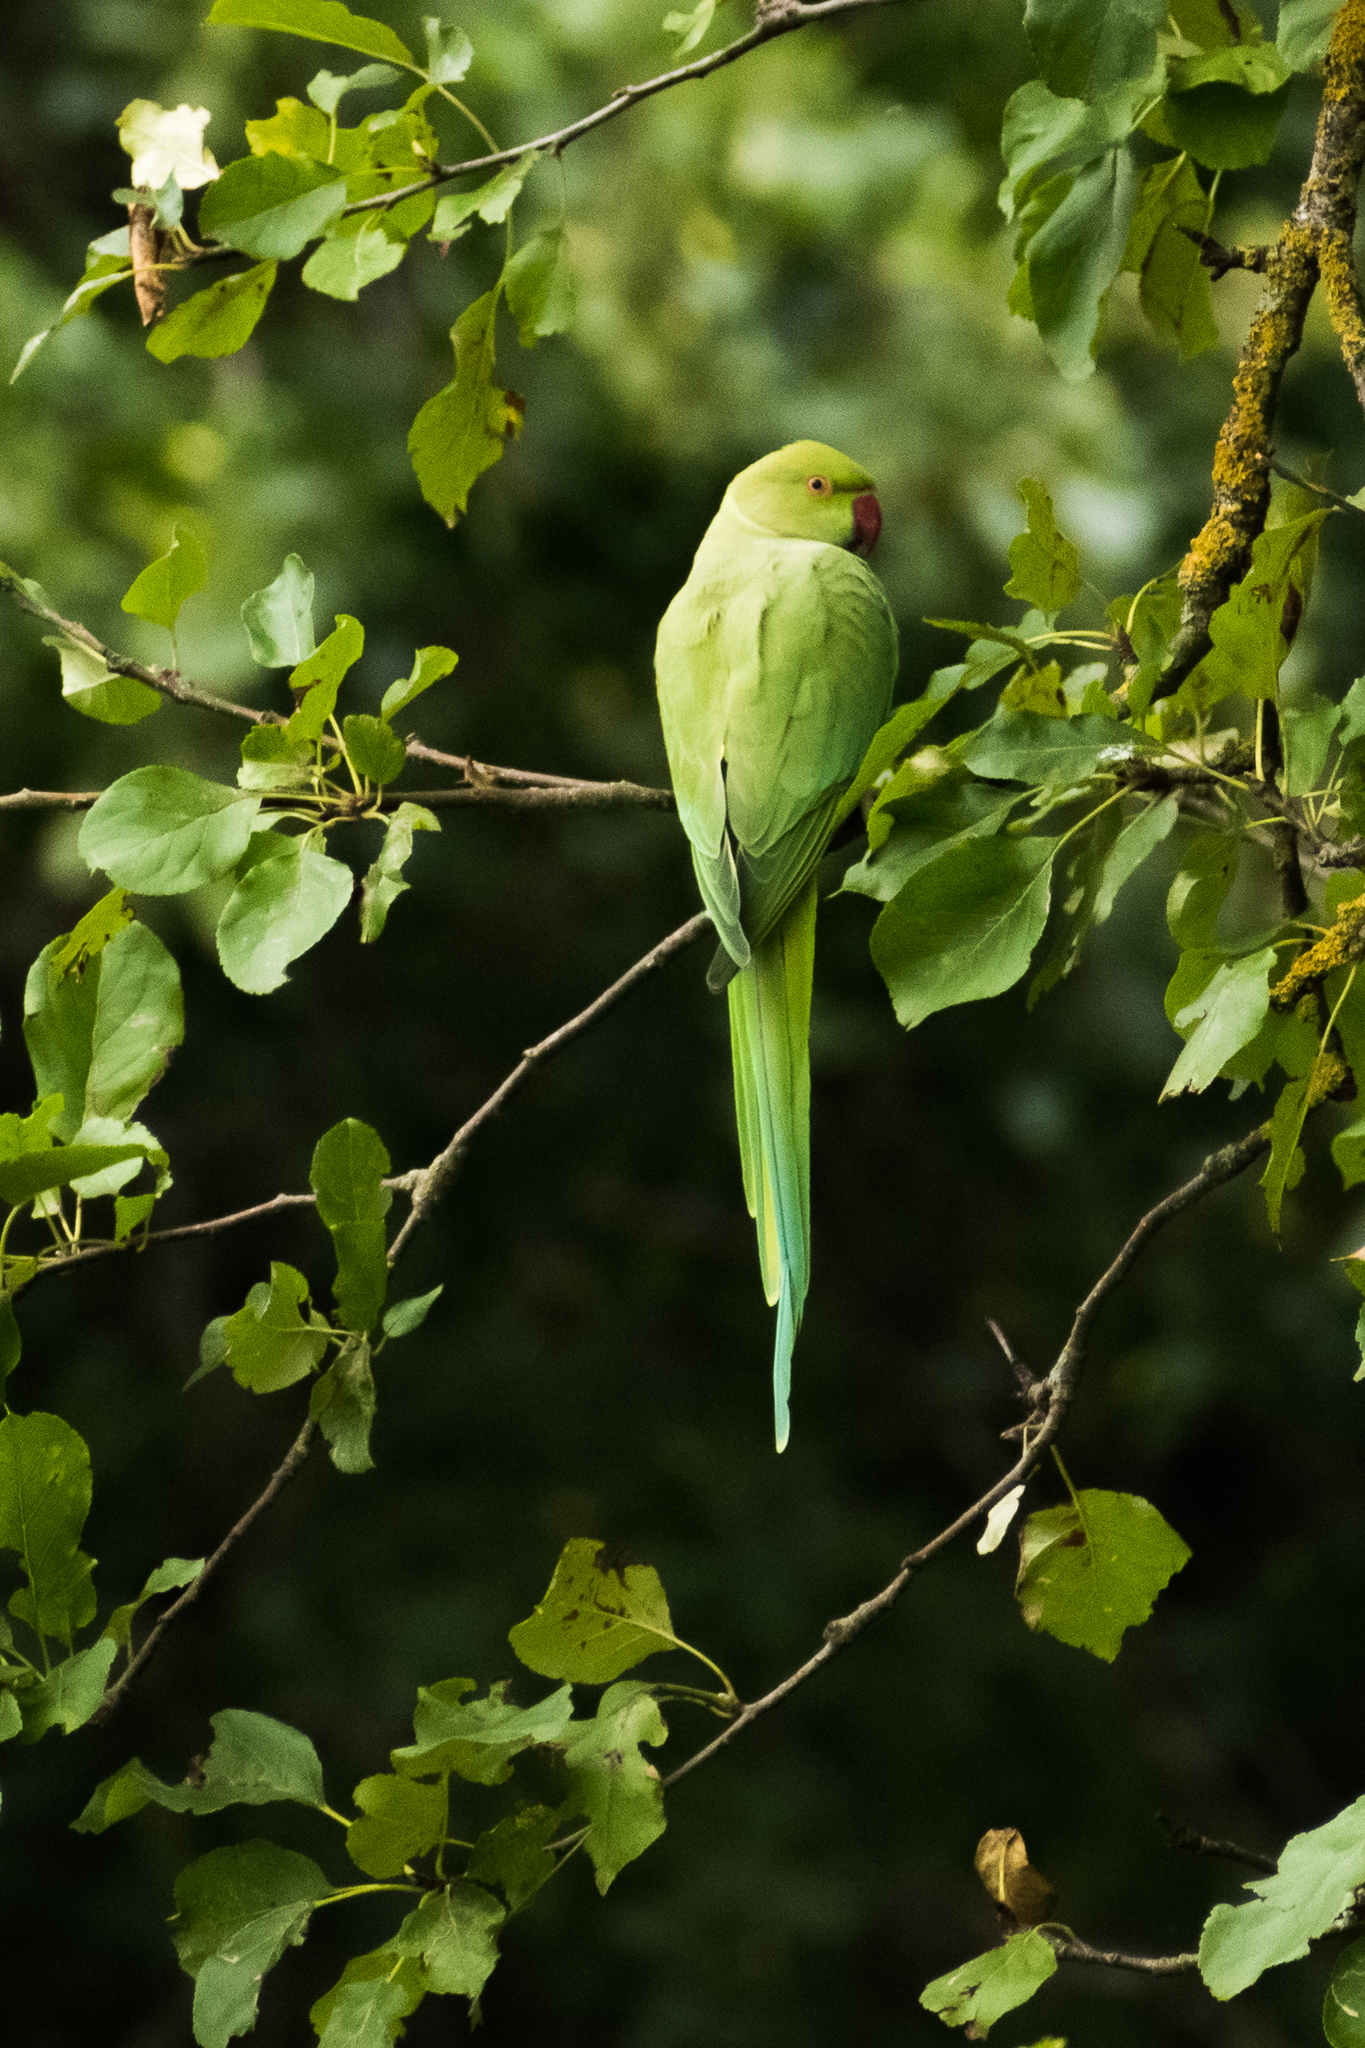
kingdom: Animalia
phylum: Chordata
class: Aves
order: Psittaciformes
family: Psittacidae
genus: Psittacula
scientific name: Psittacula krameri
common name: Rose-ringed parakeet
